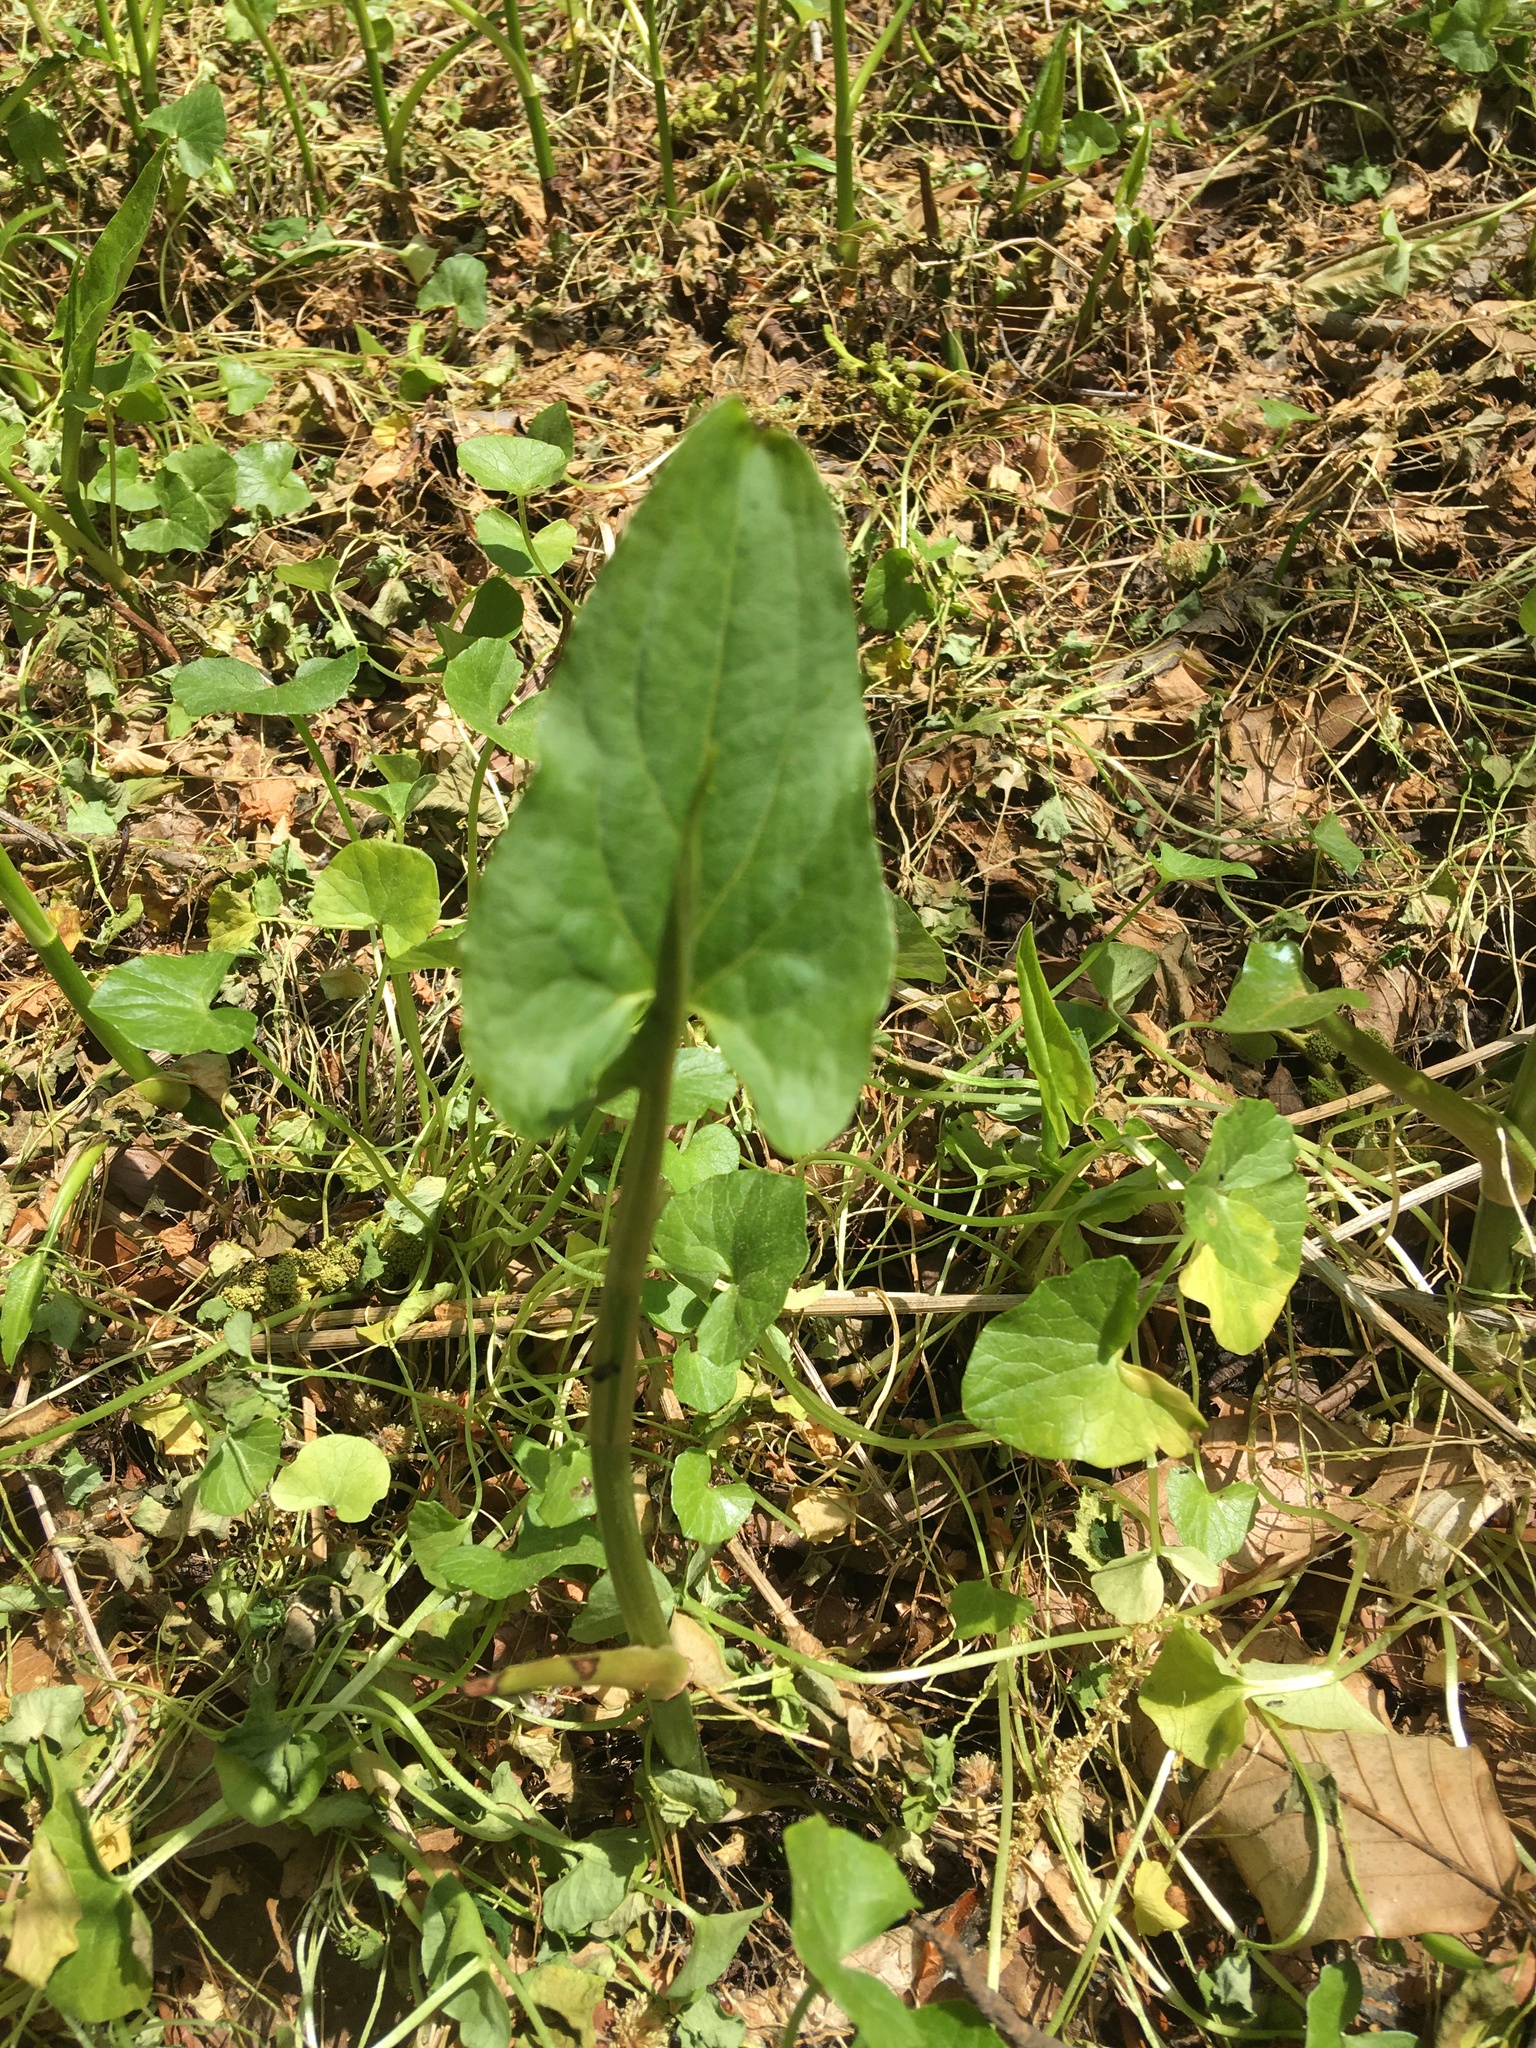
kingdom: Plantae
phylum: Tracheophyta
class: Liliopsida
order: Alismatales
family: Araceae
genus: Peltandra
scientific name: Peltandra virginica
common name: Arrow arum
